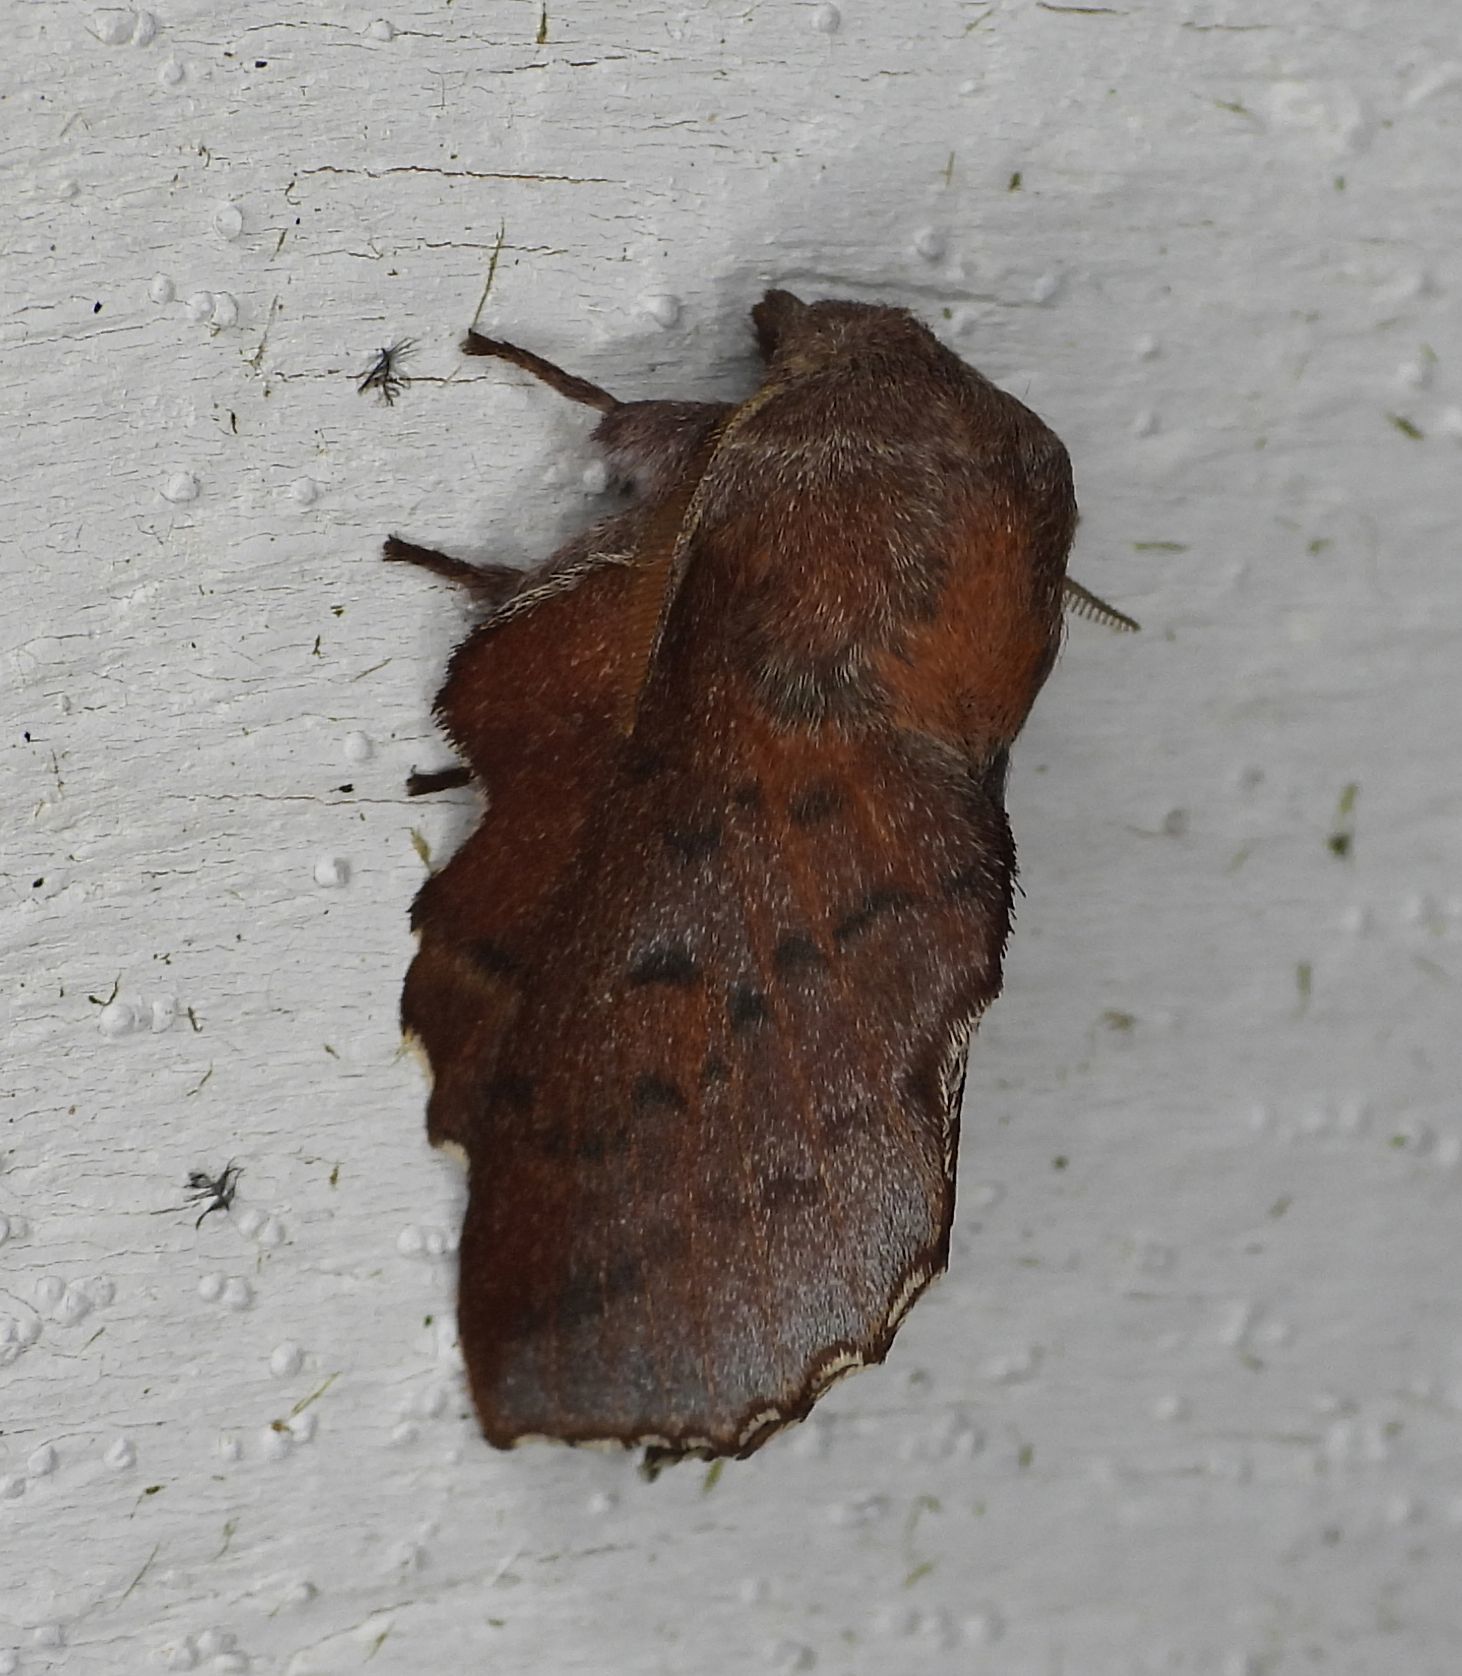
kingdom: Animalia
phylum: Arthropoda
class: Insecta
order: Lepidoptera
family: Lasiocampidae
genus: Phyllodesma
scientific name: Phyllodesma americana
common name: American lappet moth
